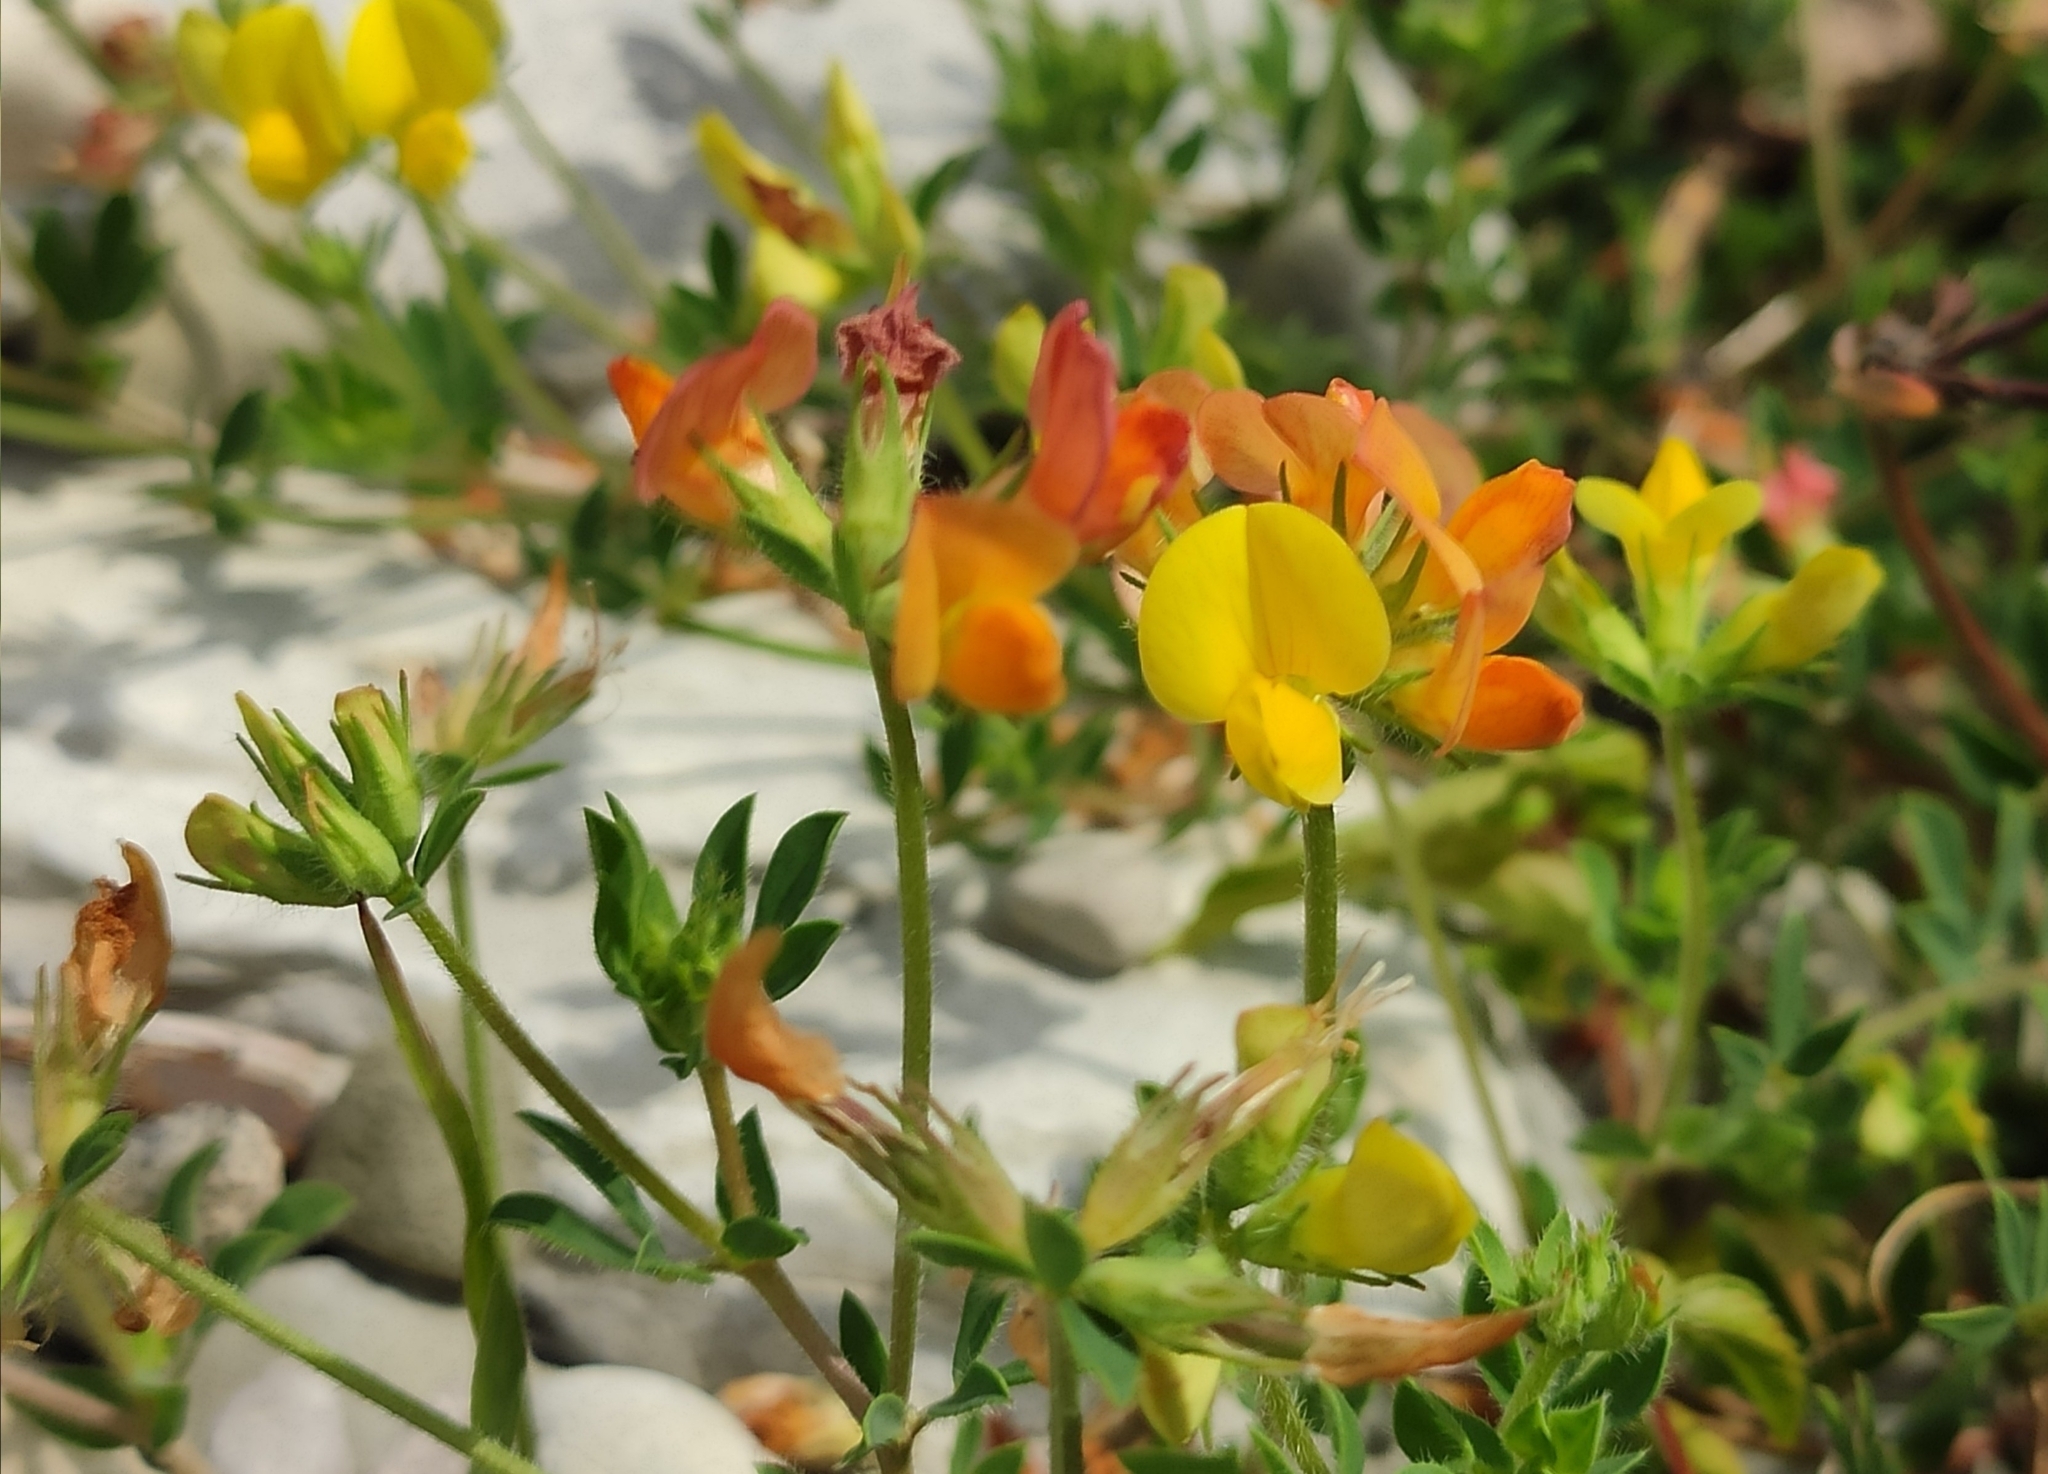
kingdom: Plantae
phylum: Tracheophyta
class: Magnoliopsida
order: Fabales
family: Fabaceae
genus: Lotus
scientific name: Lotus corniculatus
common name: Common bird's-foot-trefoil
